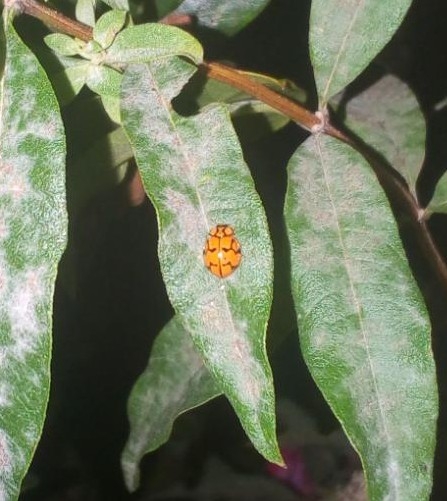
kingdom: Animalia
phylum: Arthropoda
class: Insecta
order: Coleoptera
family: Coccinellidae
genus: Mulsantina
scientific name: Mulsantina
